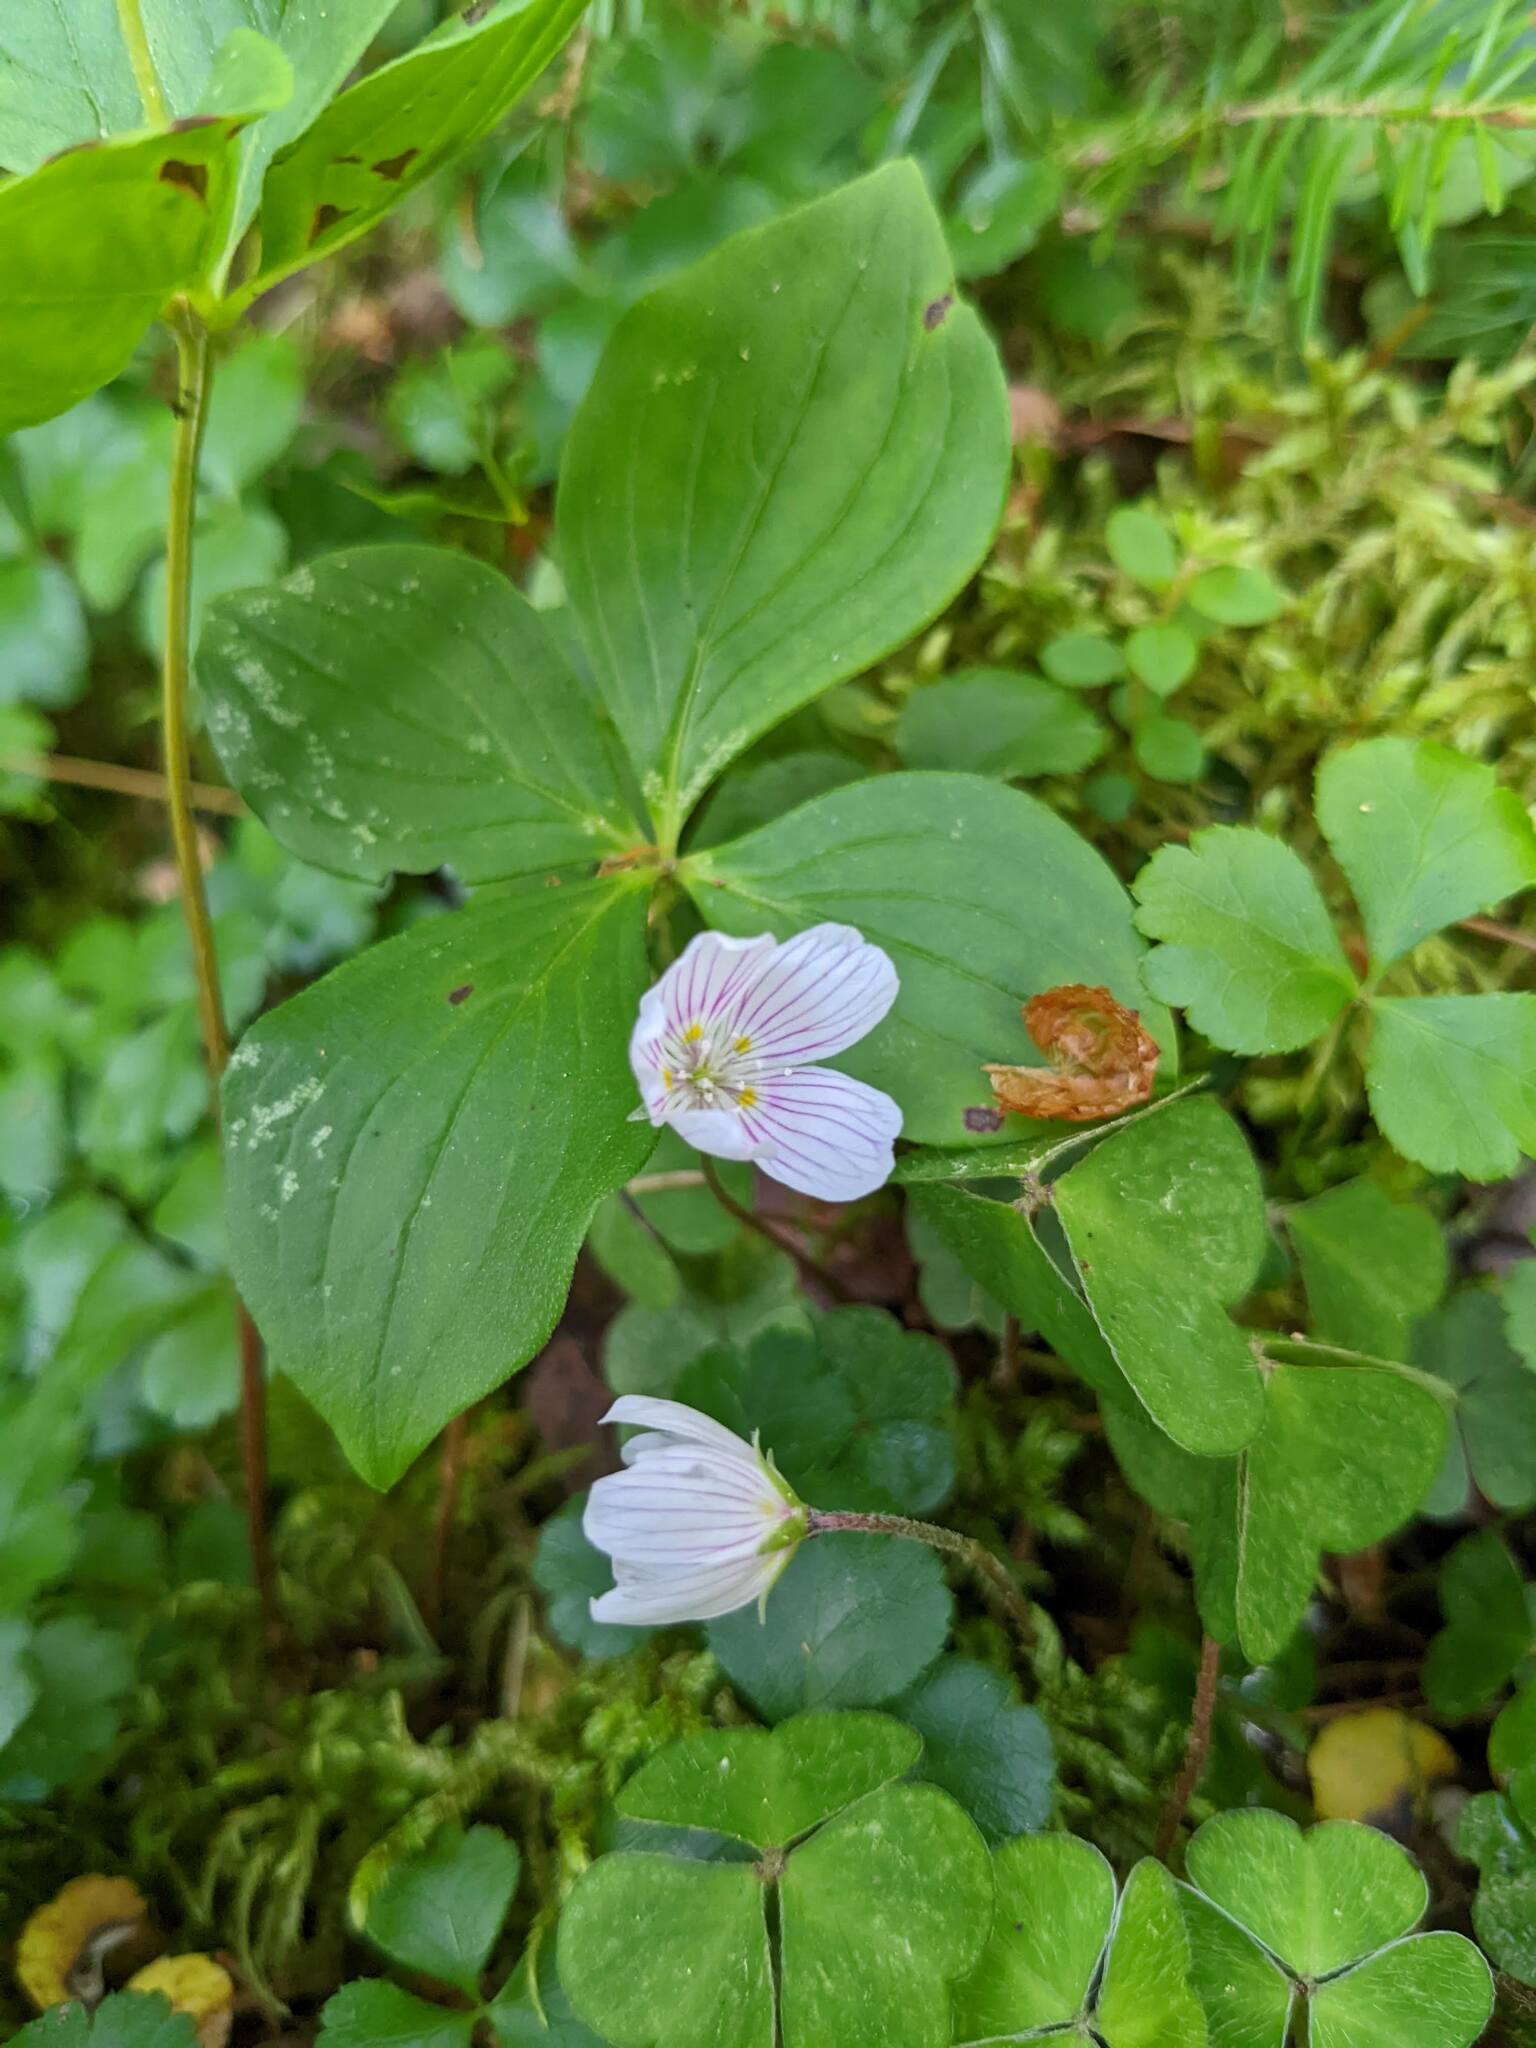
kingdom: Plantae
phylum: Tracheophyta
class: Magnoliopsida
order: Oxalidales
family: Oxalidaceae
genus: Oxalis
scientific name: Oxalis montana
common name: American wood-sorrel
